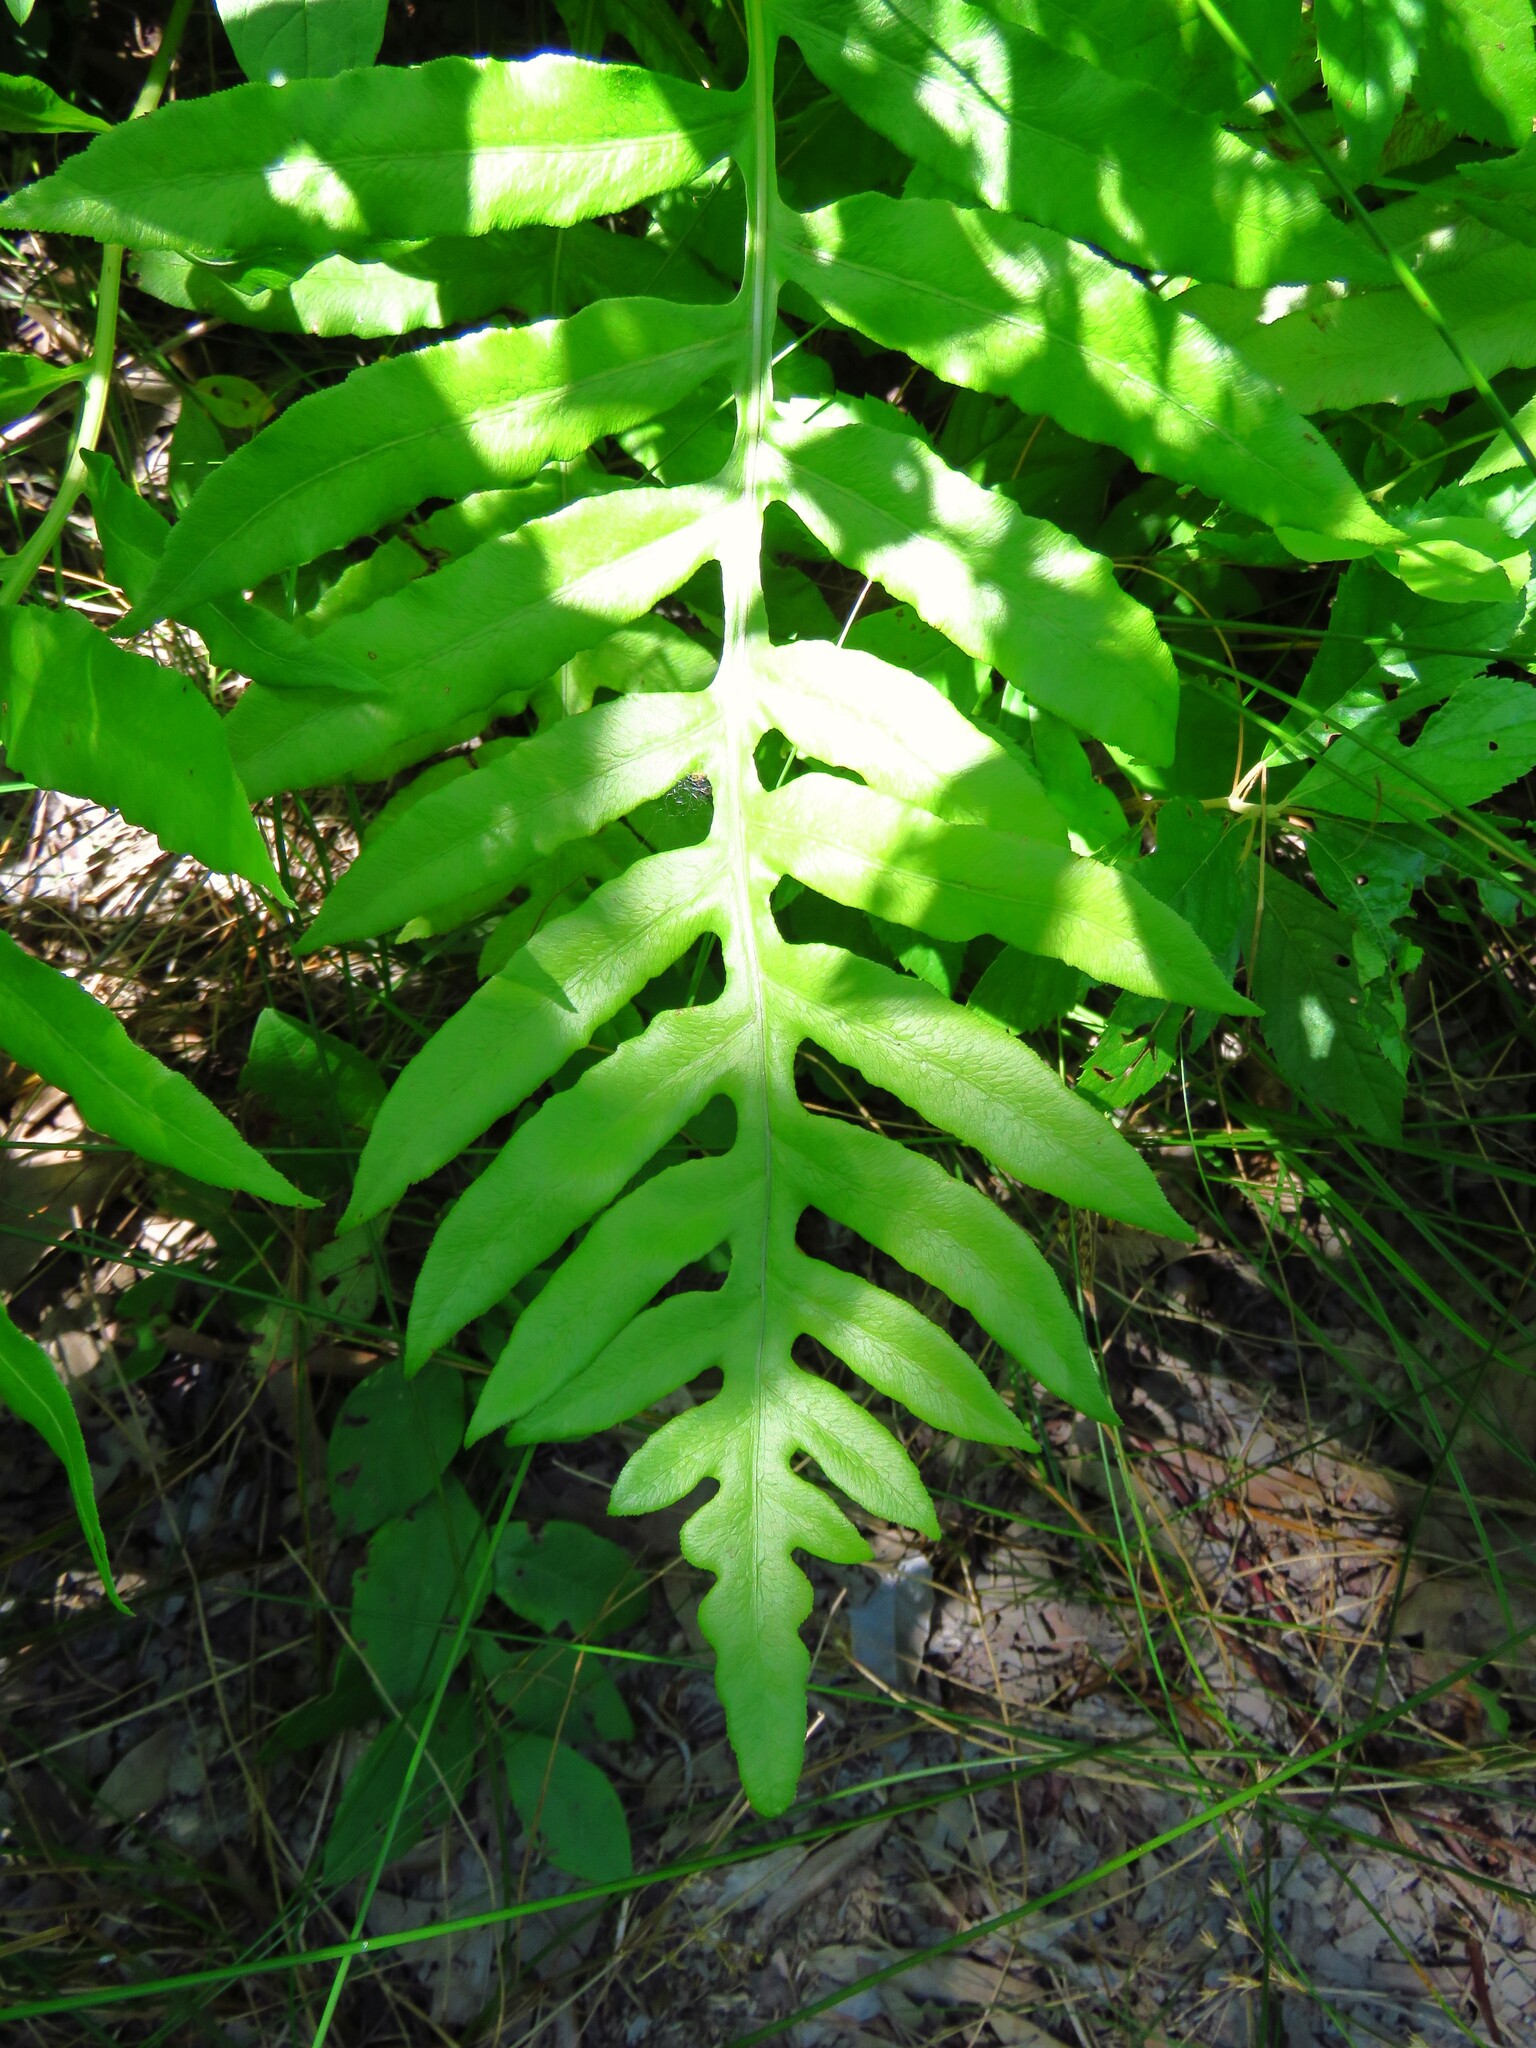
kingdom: Plantae
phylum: Tracheophyta
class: Polypodiopsida
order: Polypodiales
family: Onocleaceae
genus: Onoclea
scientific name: Onoclea sensibilis
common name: Sensitive fern
